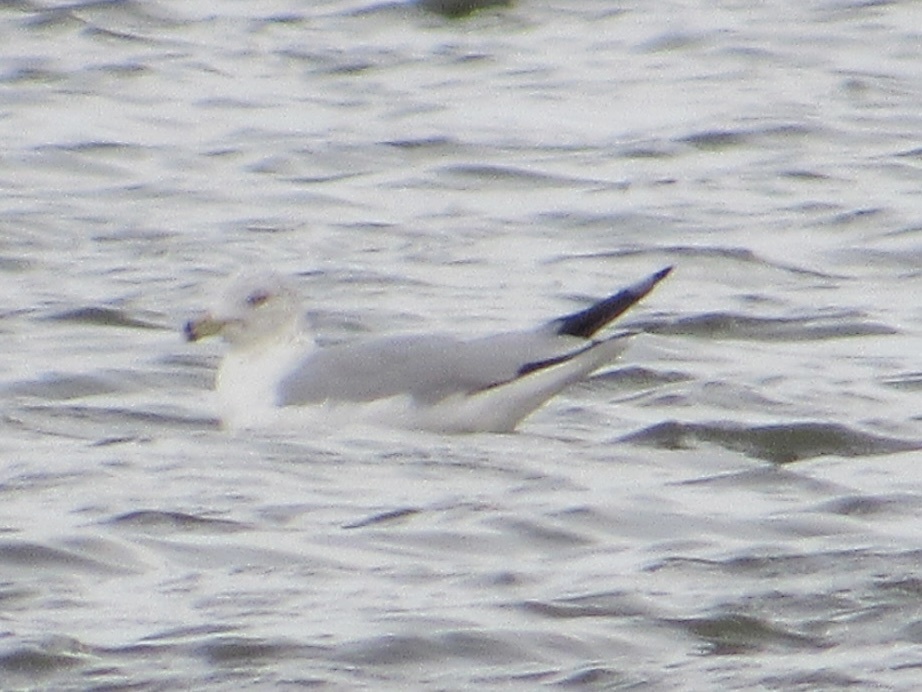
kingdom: Animalia
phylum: Chordata
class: Aves
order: Charadriiformes
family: Laridae
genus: Larus
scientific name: Larus delawarensis
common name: Ring-billed gull
